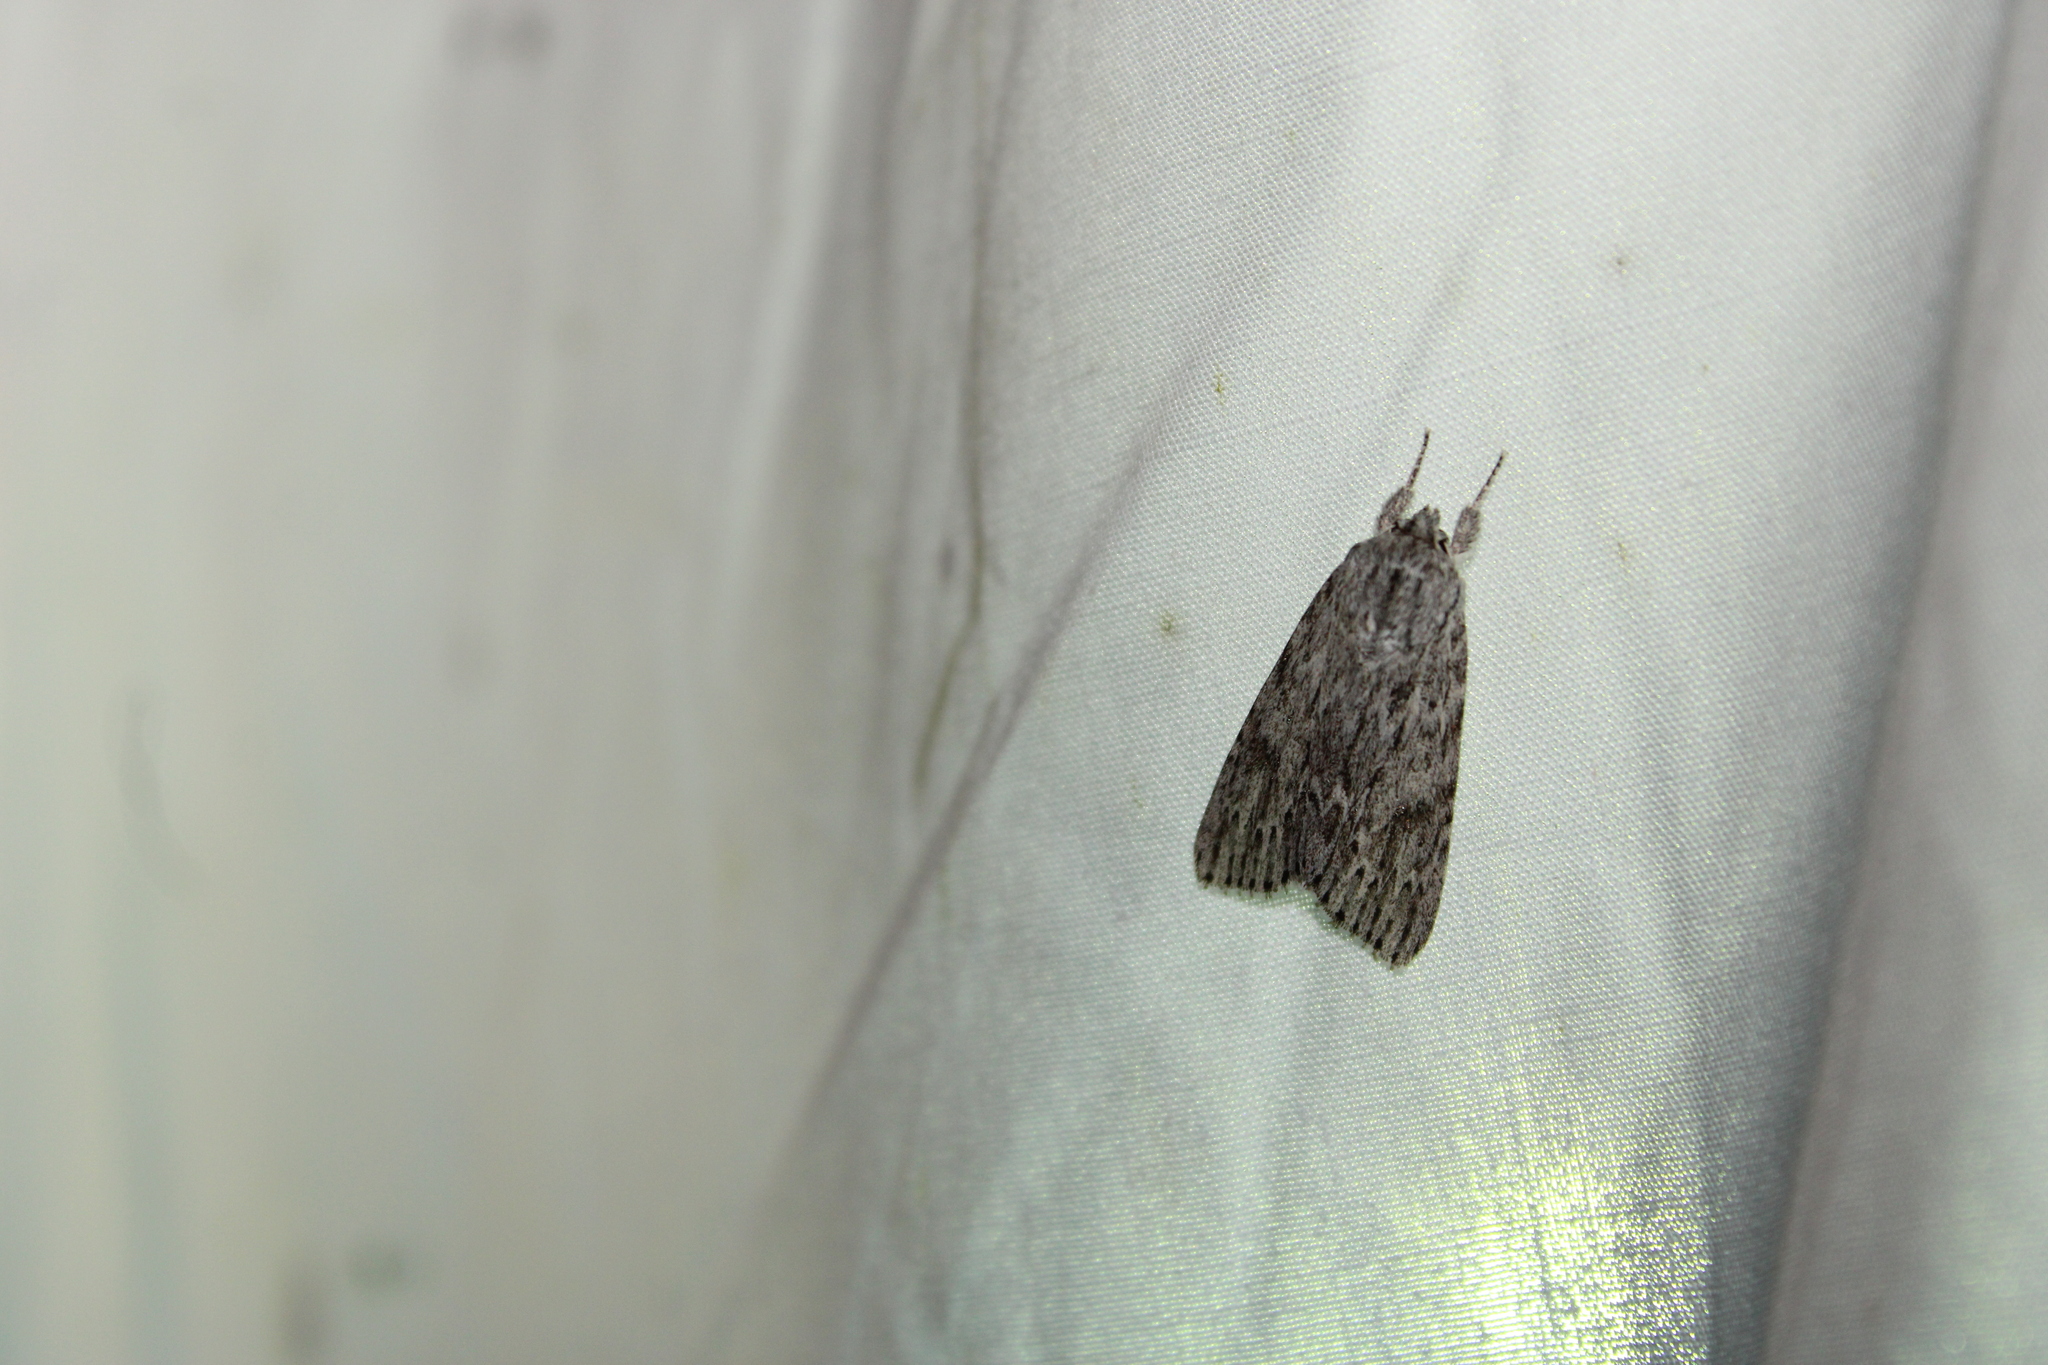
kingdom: Animalia
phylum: Arthropoda
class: Insecta
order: Lepidoptera
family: Noctuidae
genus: Acronicta
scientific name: Acronicta oblinita
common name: Smeared dagger
